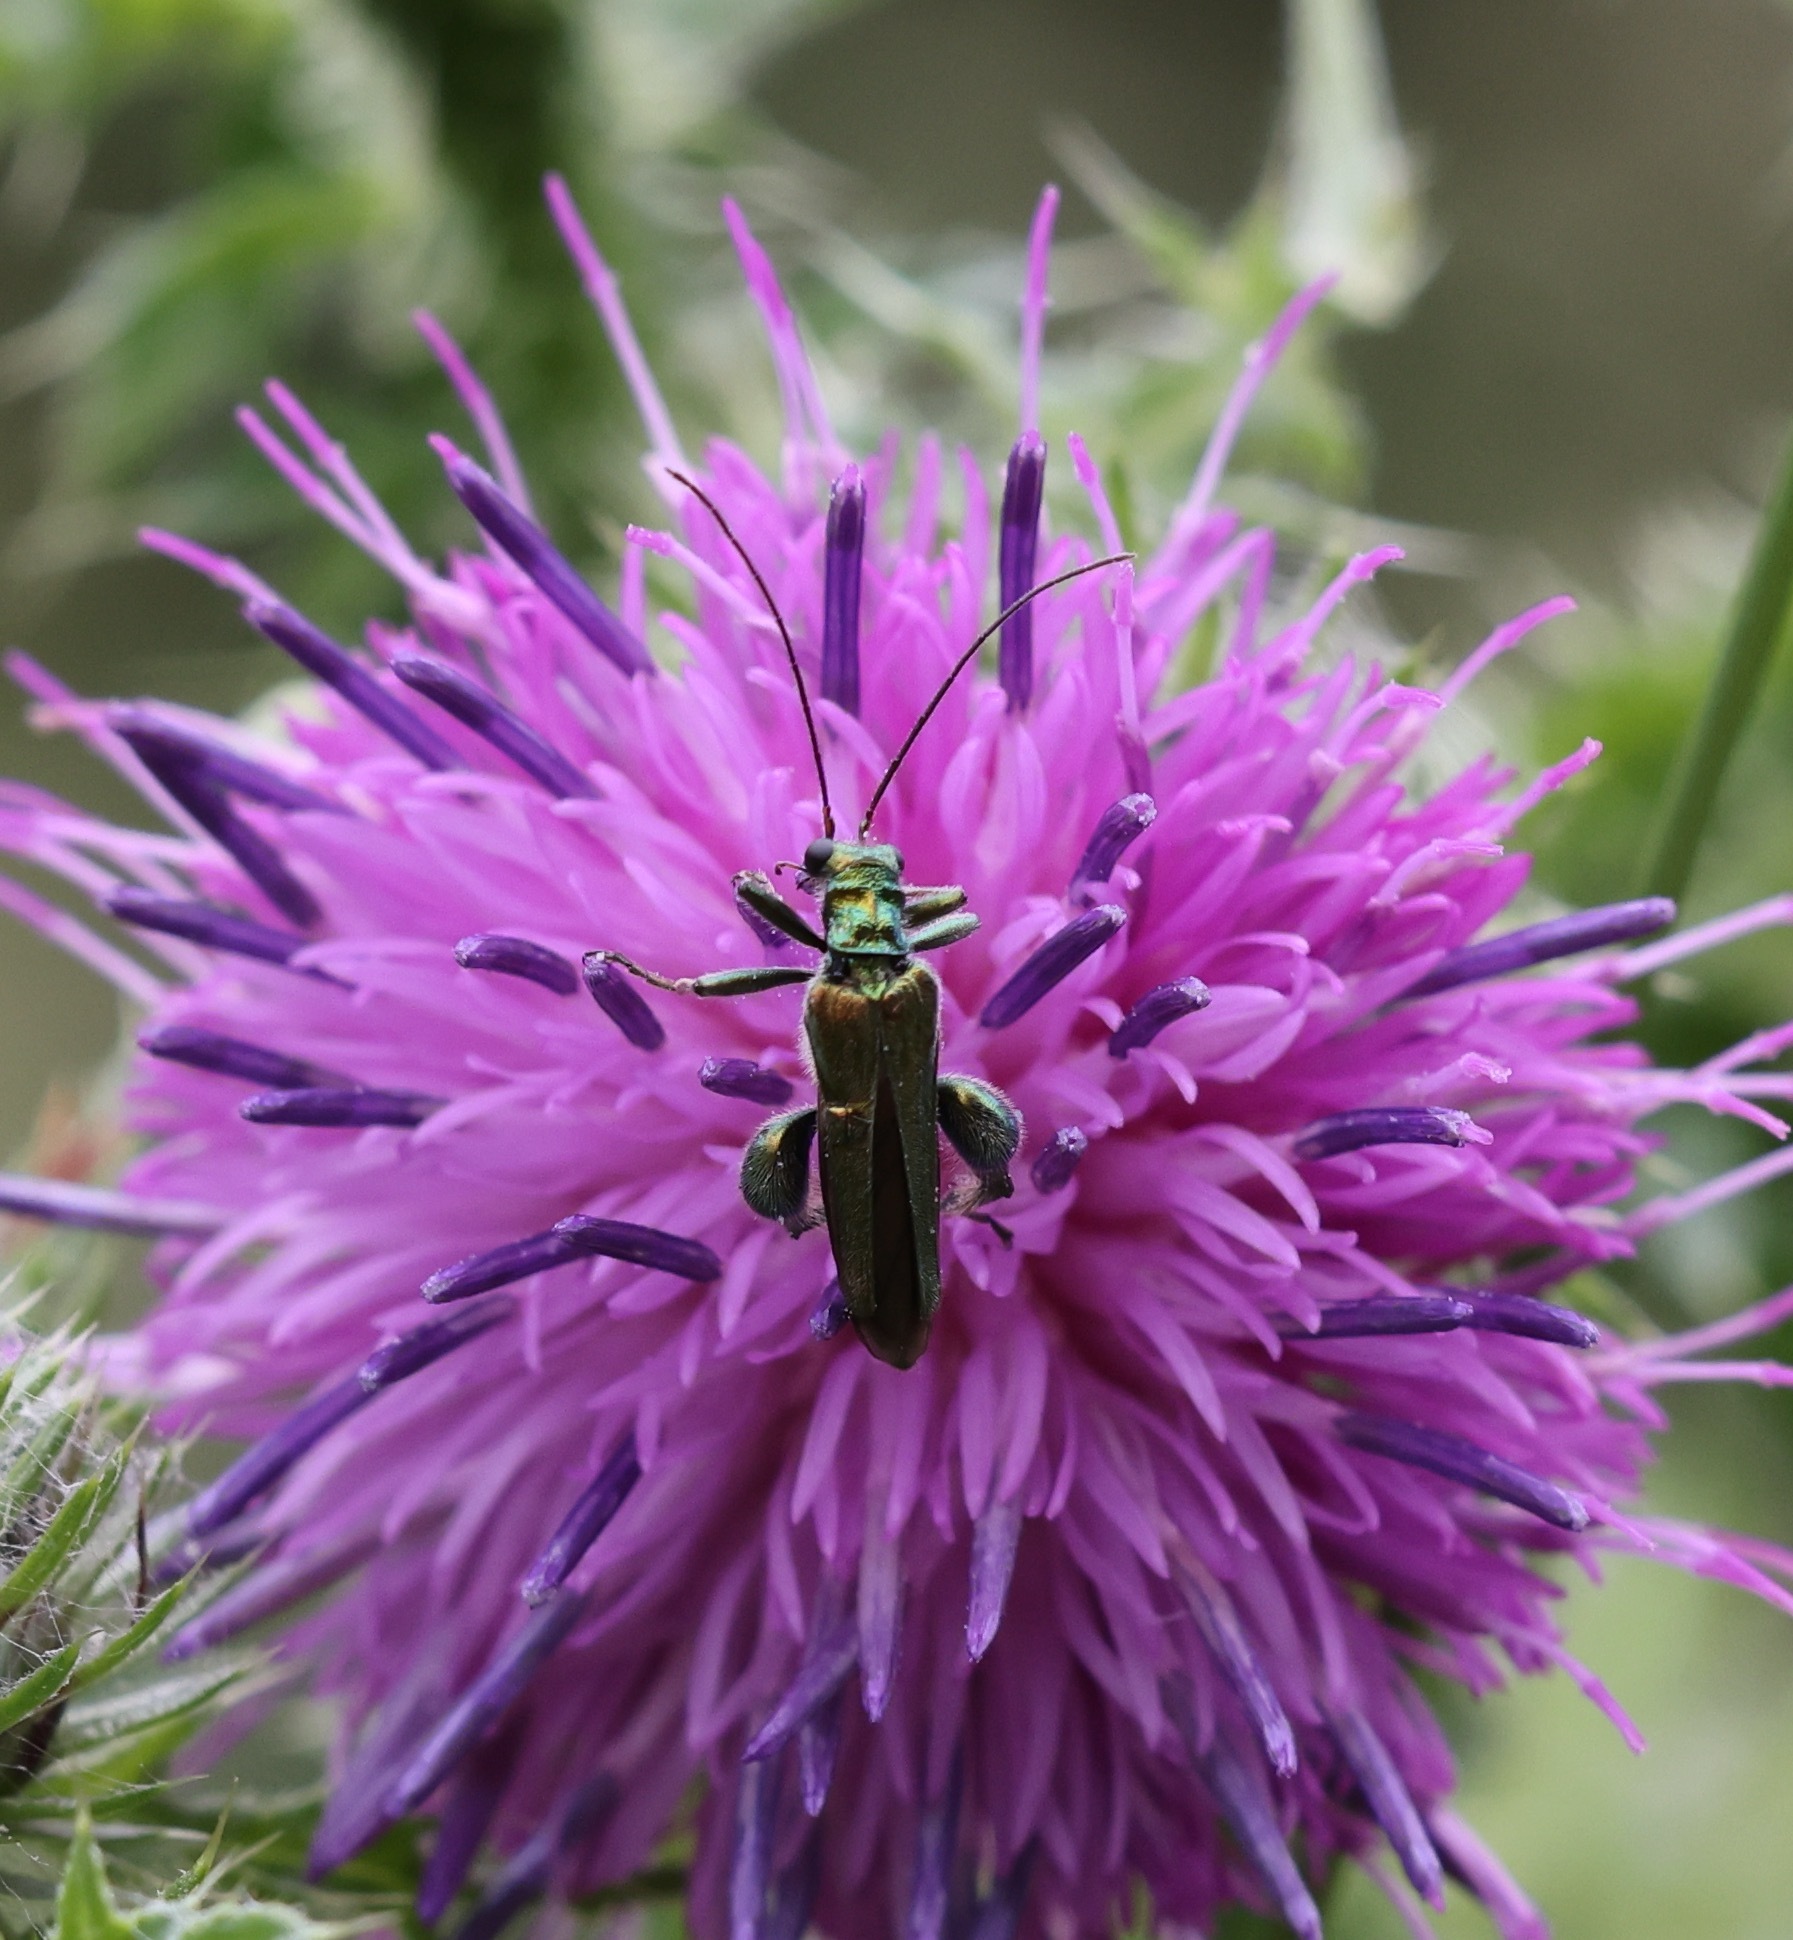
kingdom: Animalia
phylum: Arthropoda
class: Insecta
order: Coleoptera
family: Oedemeridae
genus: Oedemera
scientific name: Oedemera nobilis
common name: Swollen-thighed beetle
